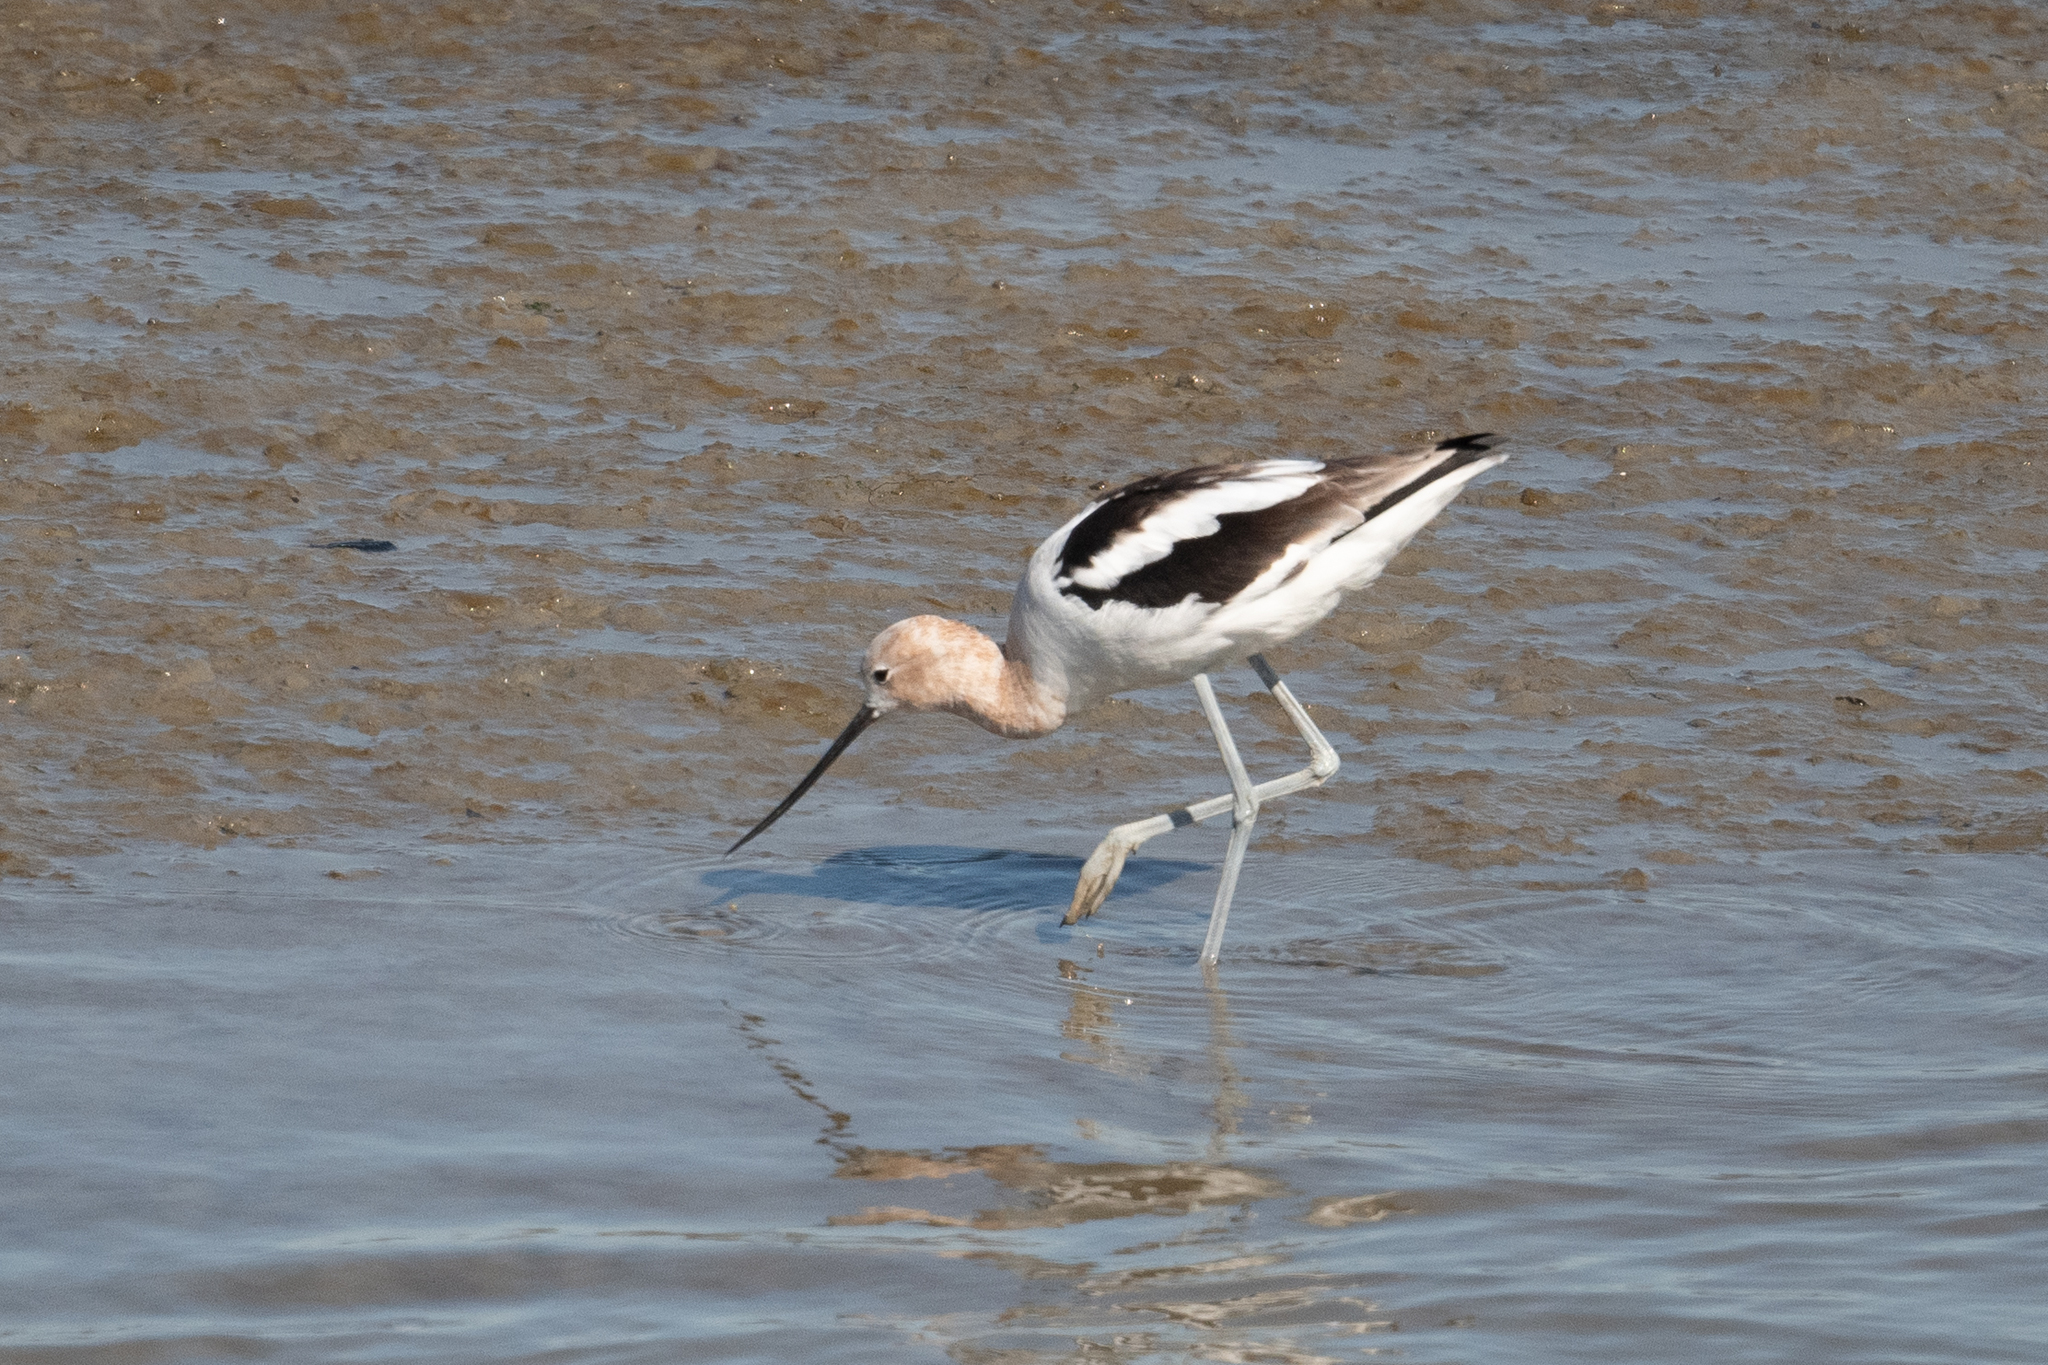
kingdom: Animalia
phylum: Chordata
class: Aves
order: Charadriiformes
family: Recurvirostridae
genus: Recurvirostra
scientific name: Recurvirostra americana
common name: American avocet
